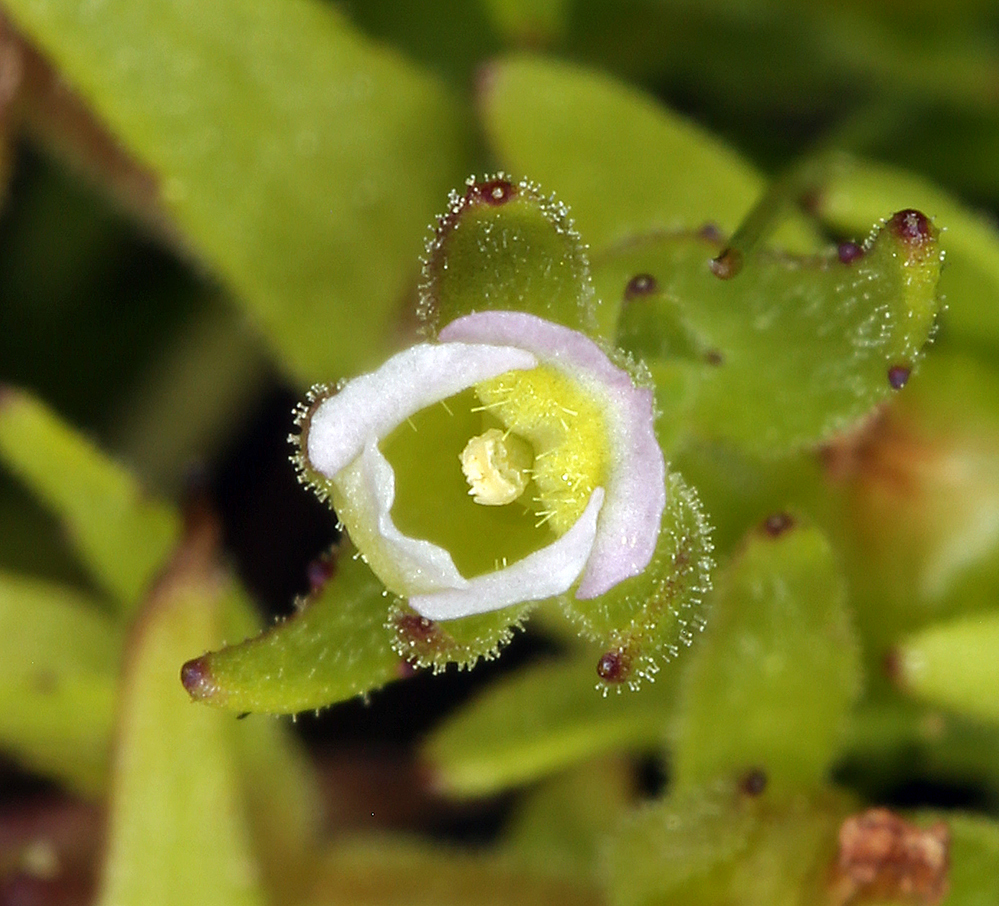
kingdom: Plantae
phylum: Tracheophyta
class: Magnoliopsida
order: Lamiales
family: Plantaginaceae
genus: Gratiola
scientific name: Gratiola ebracteata
